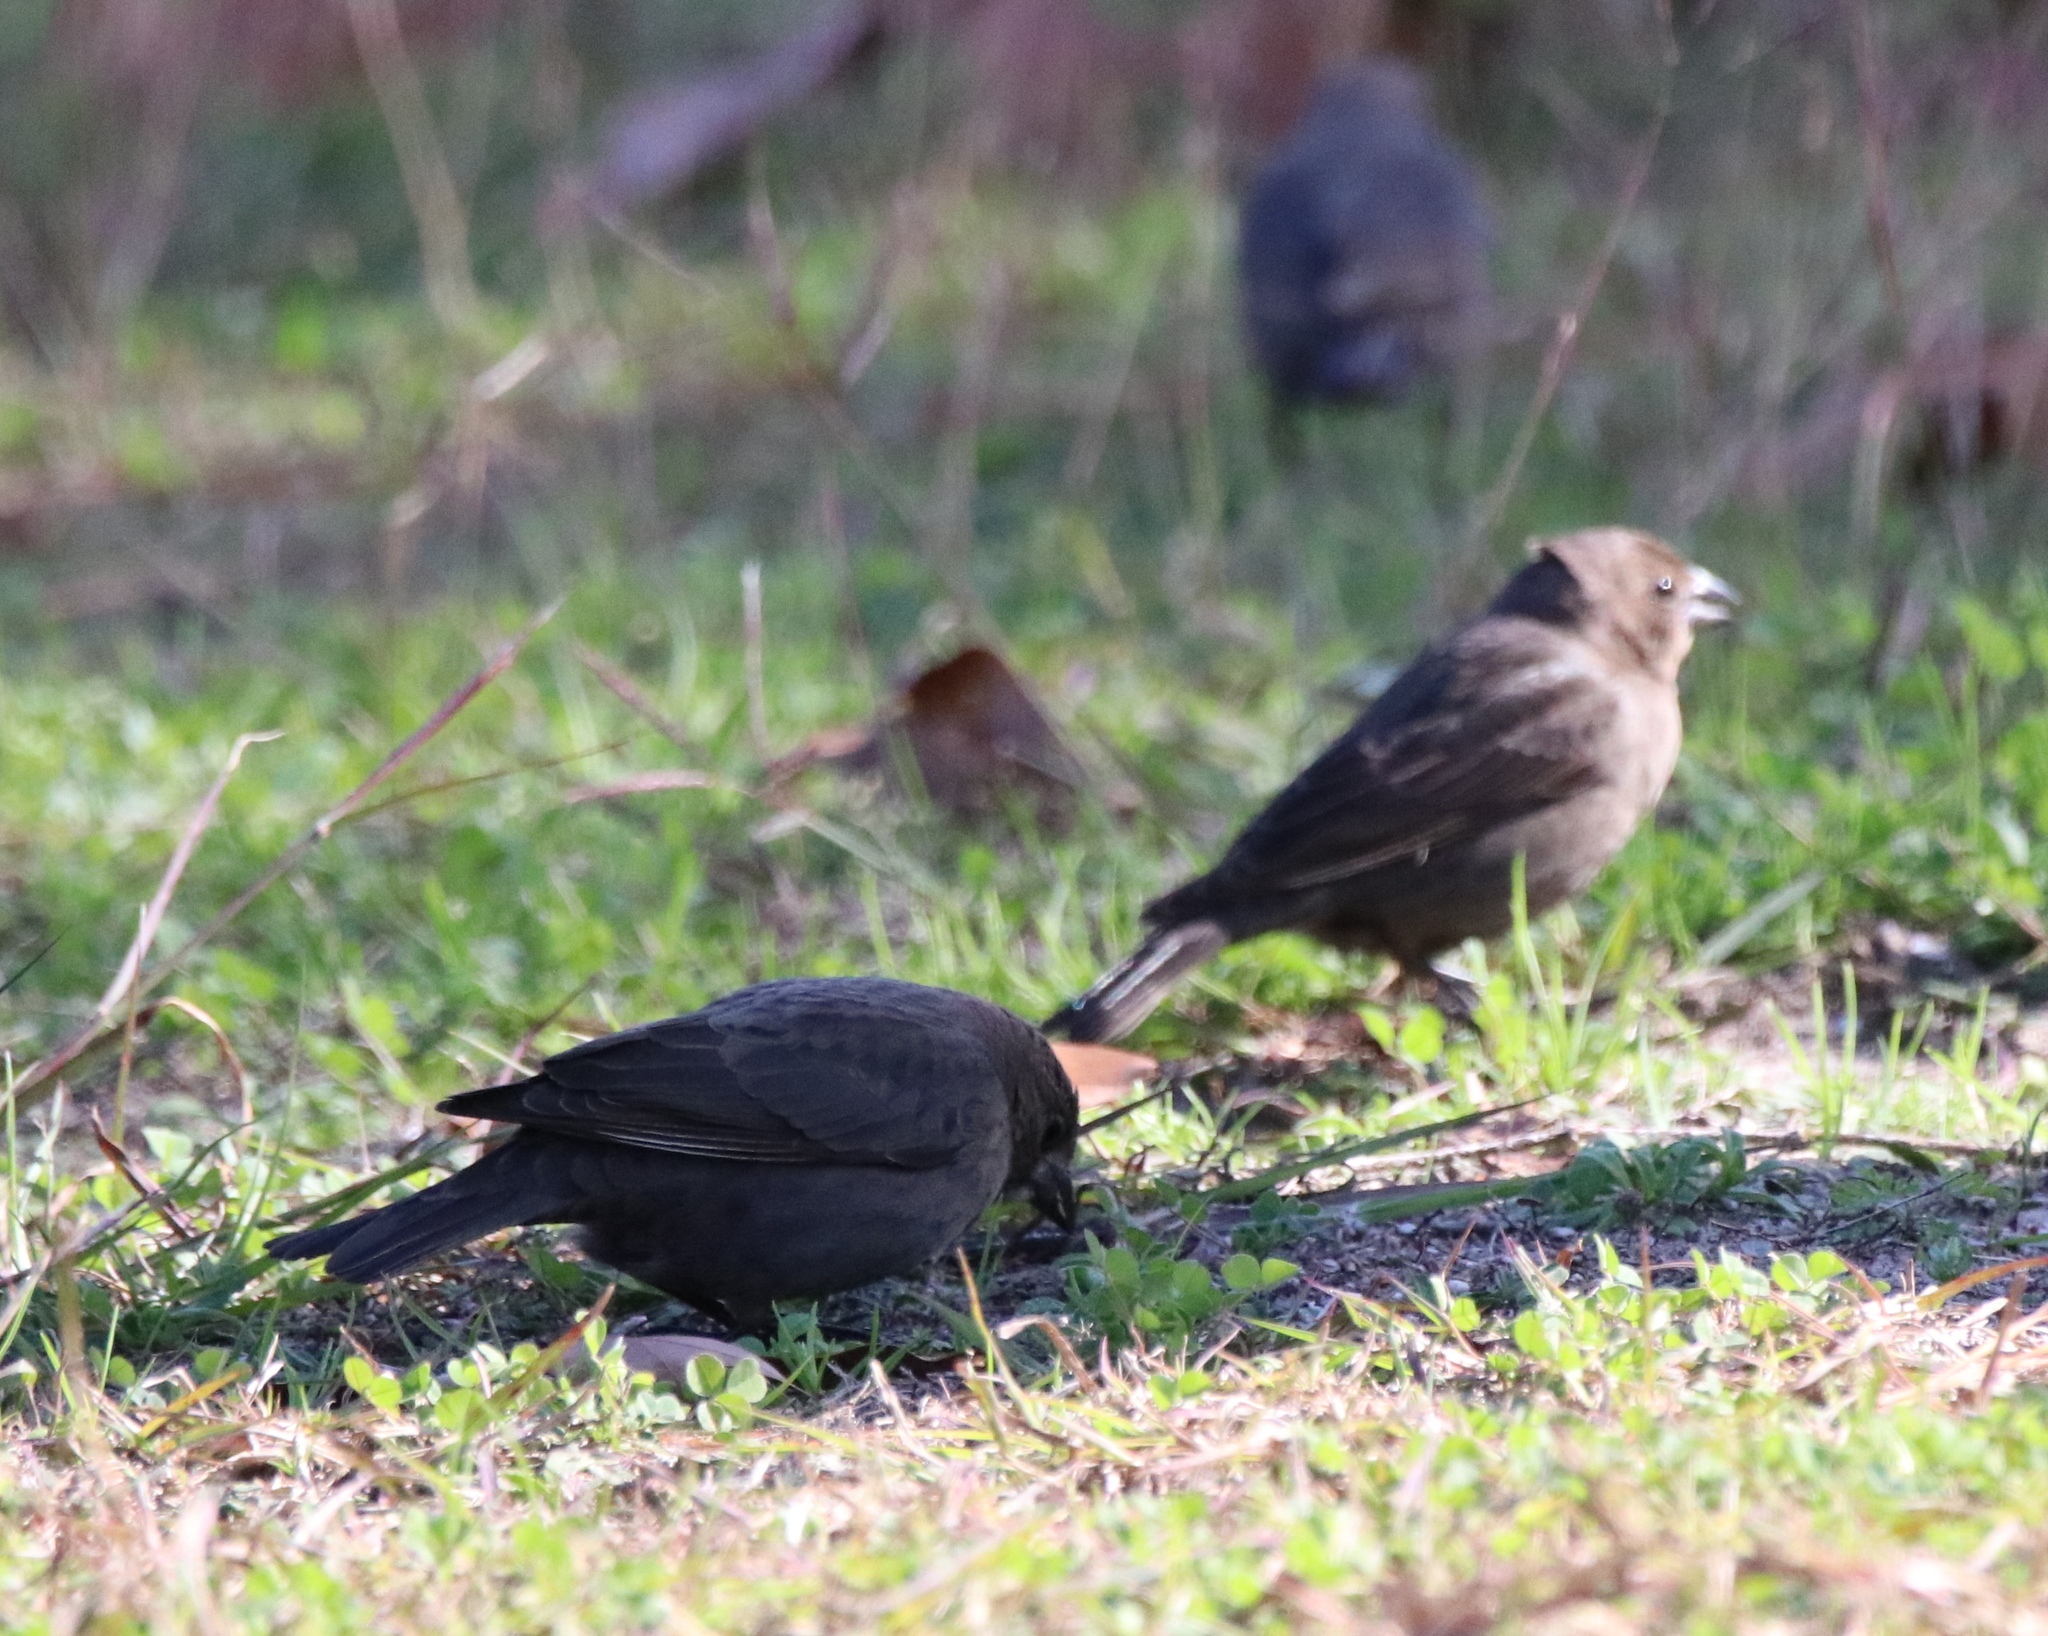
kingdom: Animalia
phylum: Chordata
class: Aves
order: Passeriformes
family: Icteridae
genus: Molothrus
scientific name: Molothrus ater
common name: Brown-headed cowbird
